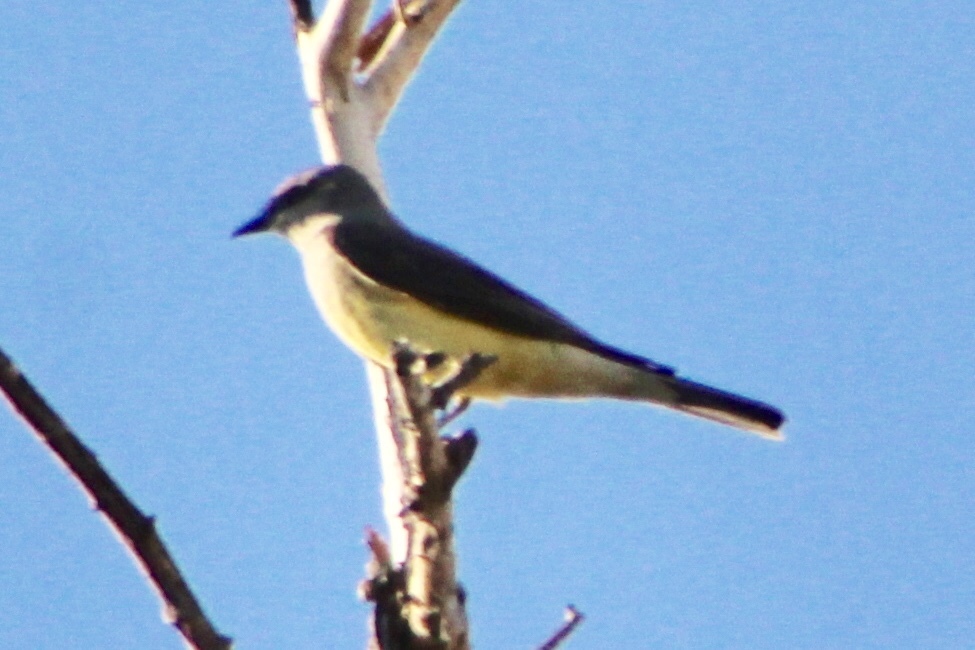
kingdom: Animalia
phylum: Chordata
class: Aves
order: Passeriformes
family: Tyrannidae
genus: Tyrannus
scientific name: Tyrannus verticalis
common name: Western kingbird
